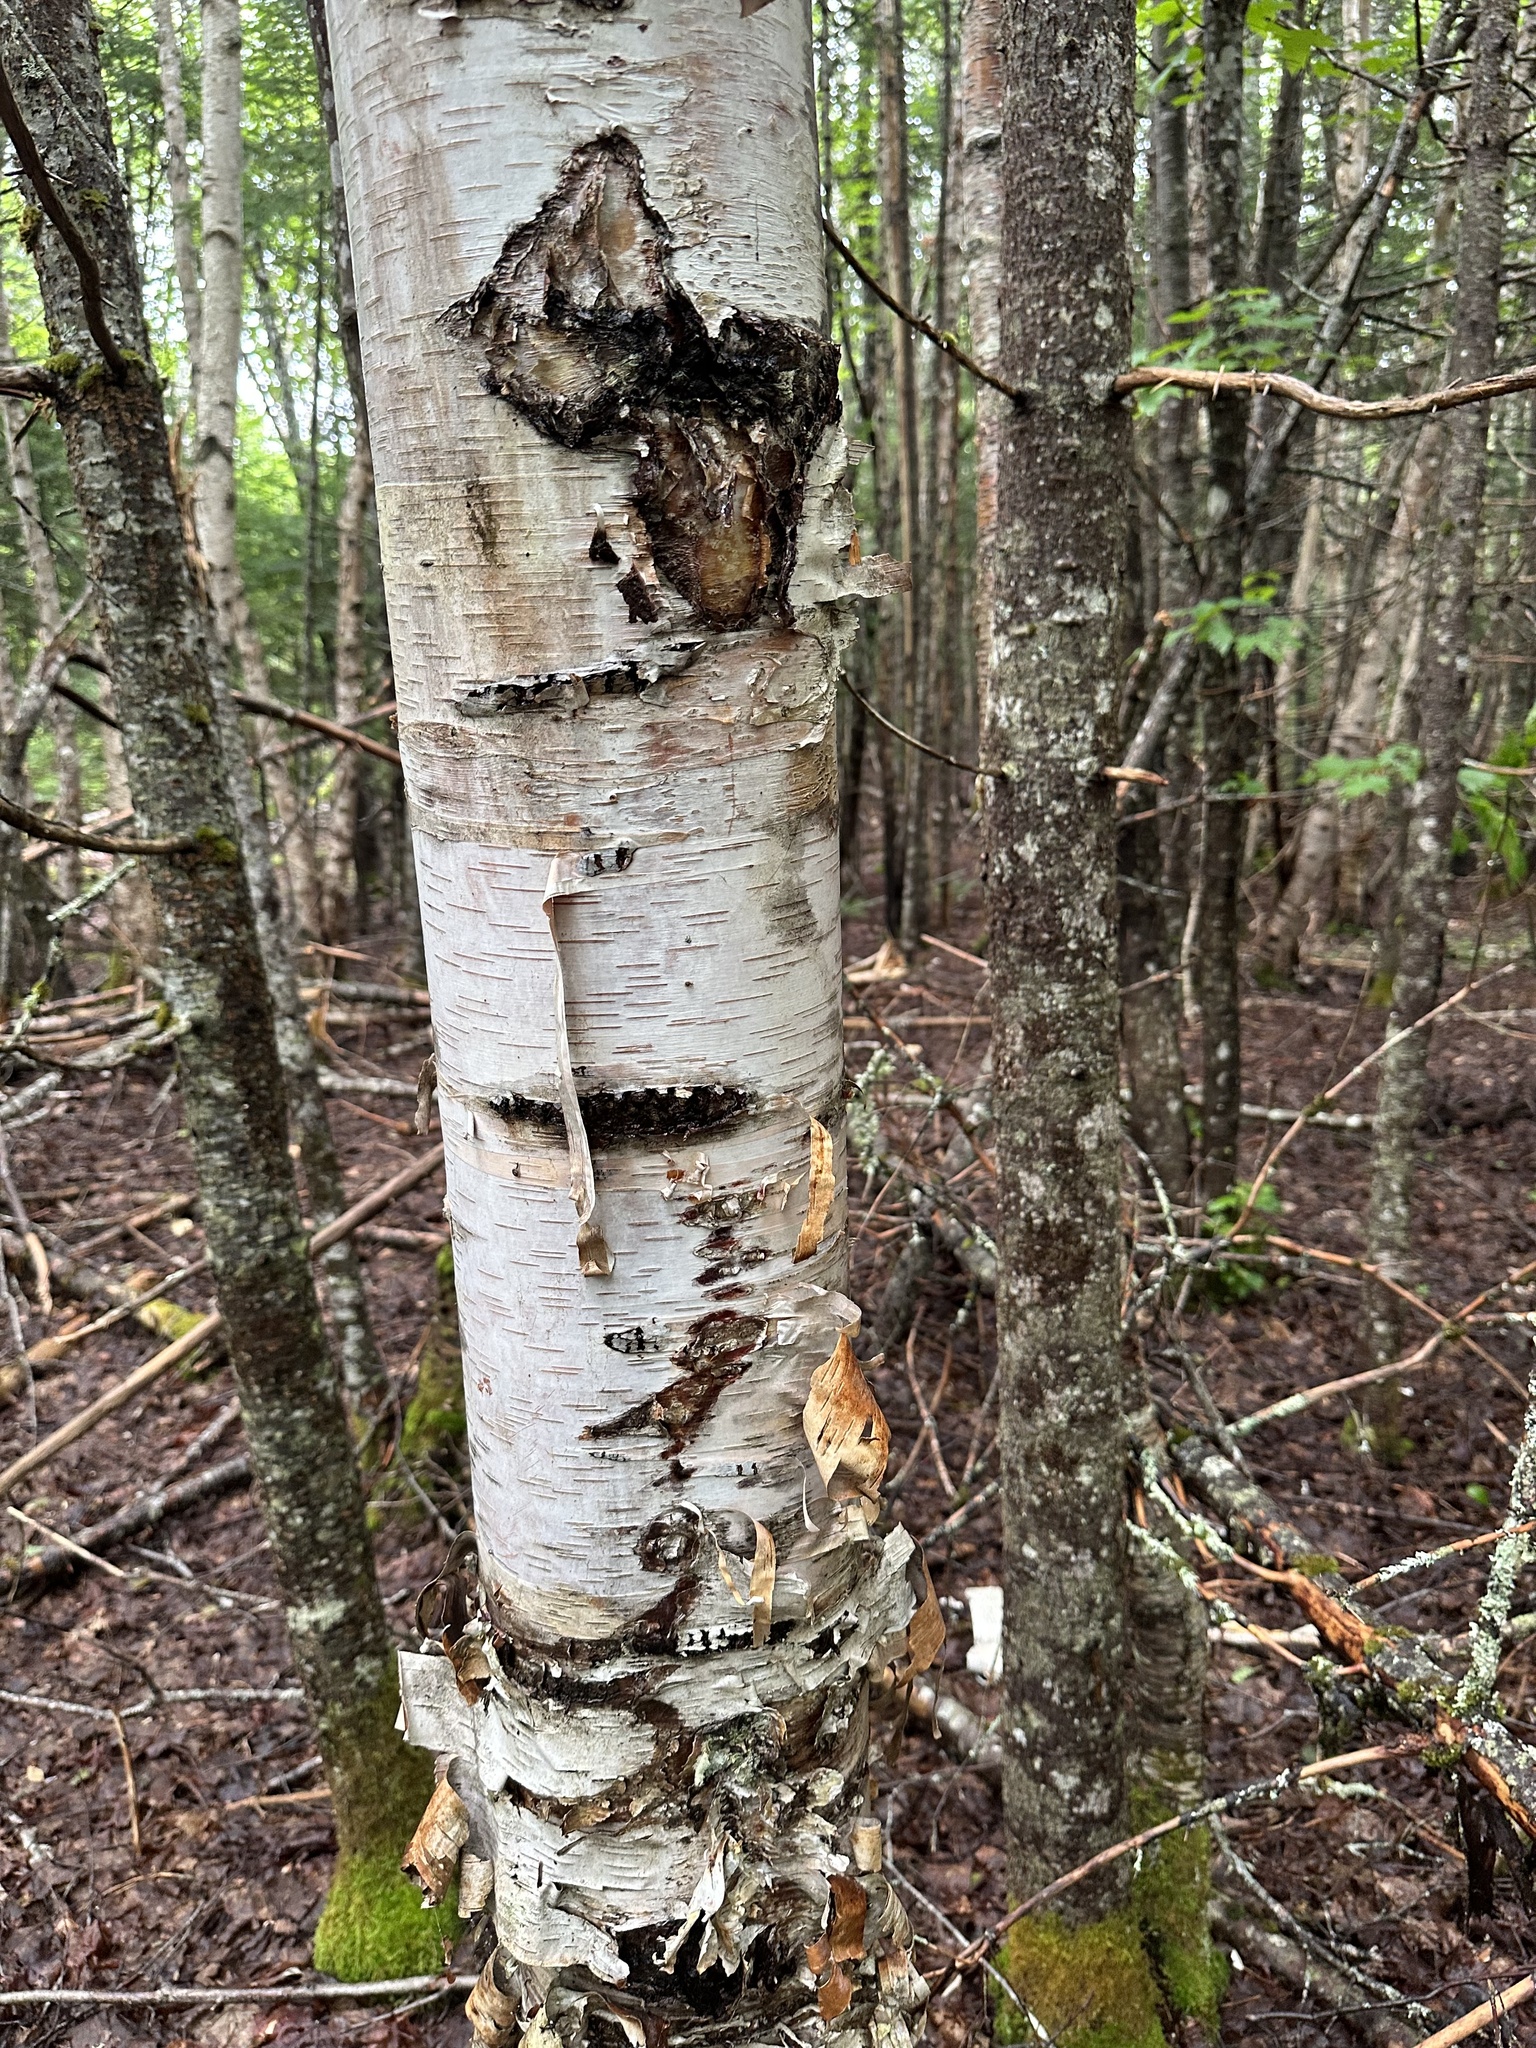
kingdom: Plantae
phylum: Tracheophyta
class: Magnoliopsida
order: Fagales
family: Betulaceae
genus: Betula
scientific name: Betula papyrifera
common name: Paper birch
